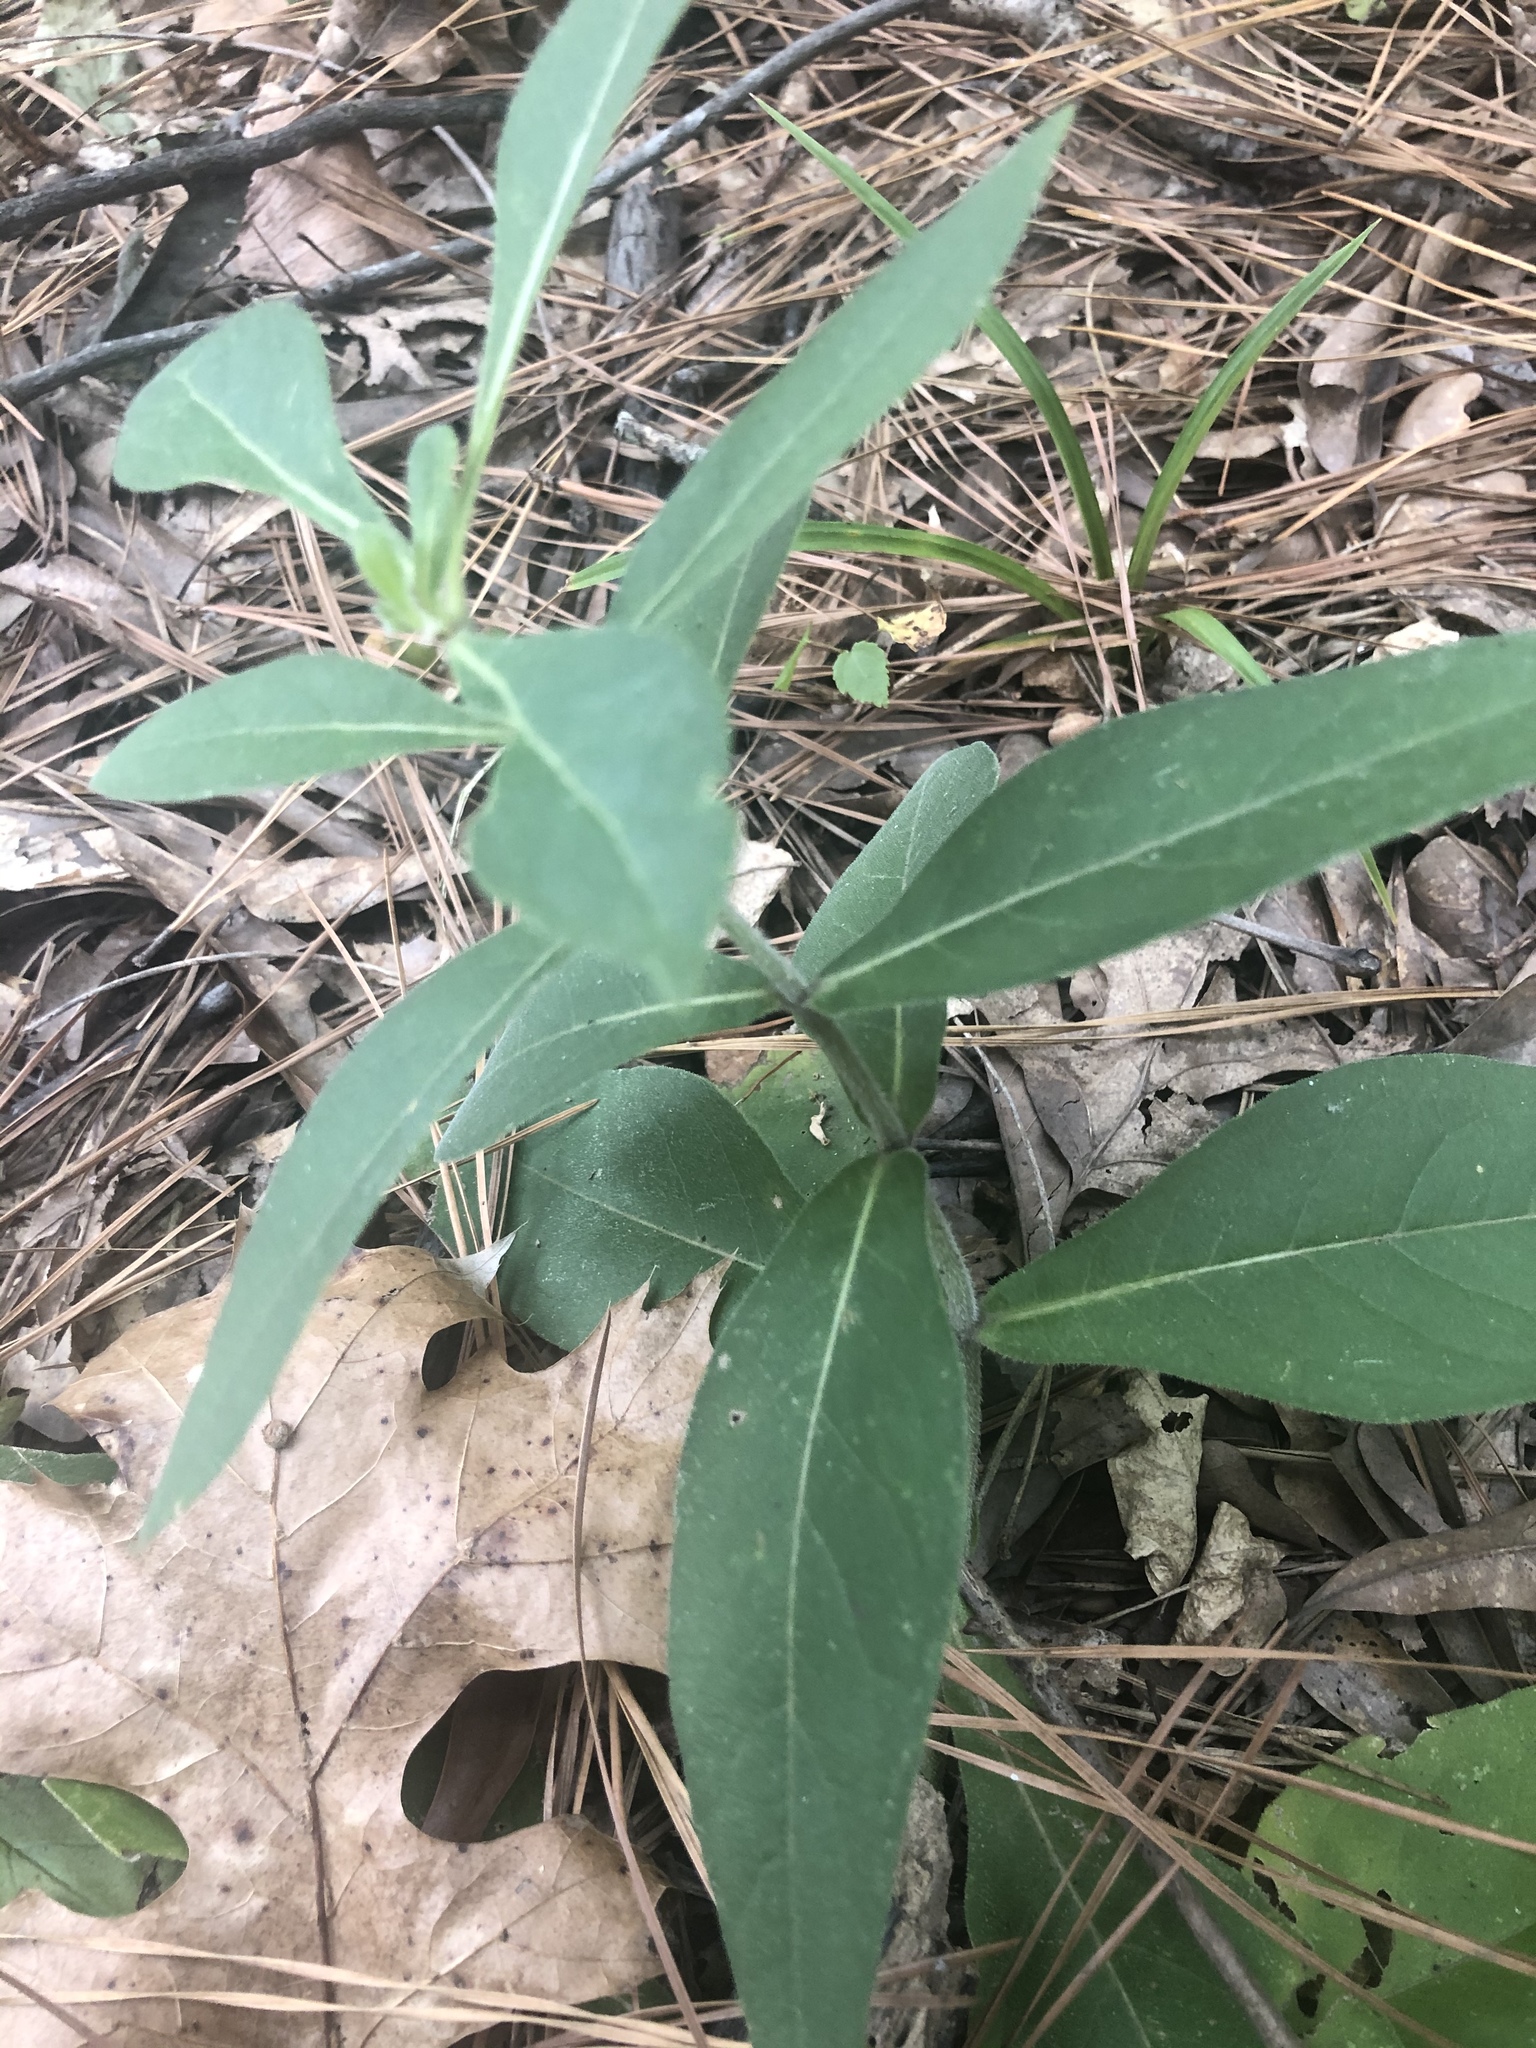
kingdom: Plantae
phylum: Tracheophyta
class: Magnoliopsida
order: Asterales
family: Asteraceae
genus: Silphium
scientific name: Silphium integrifolium
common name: Whole-leaf rosinweed
